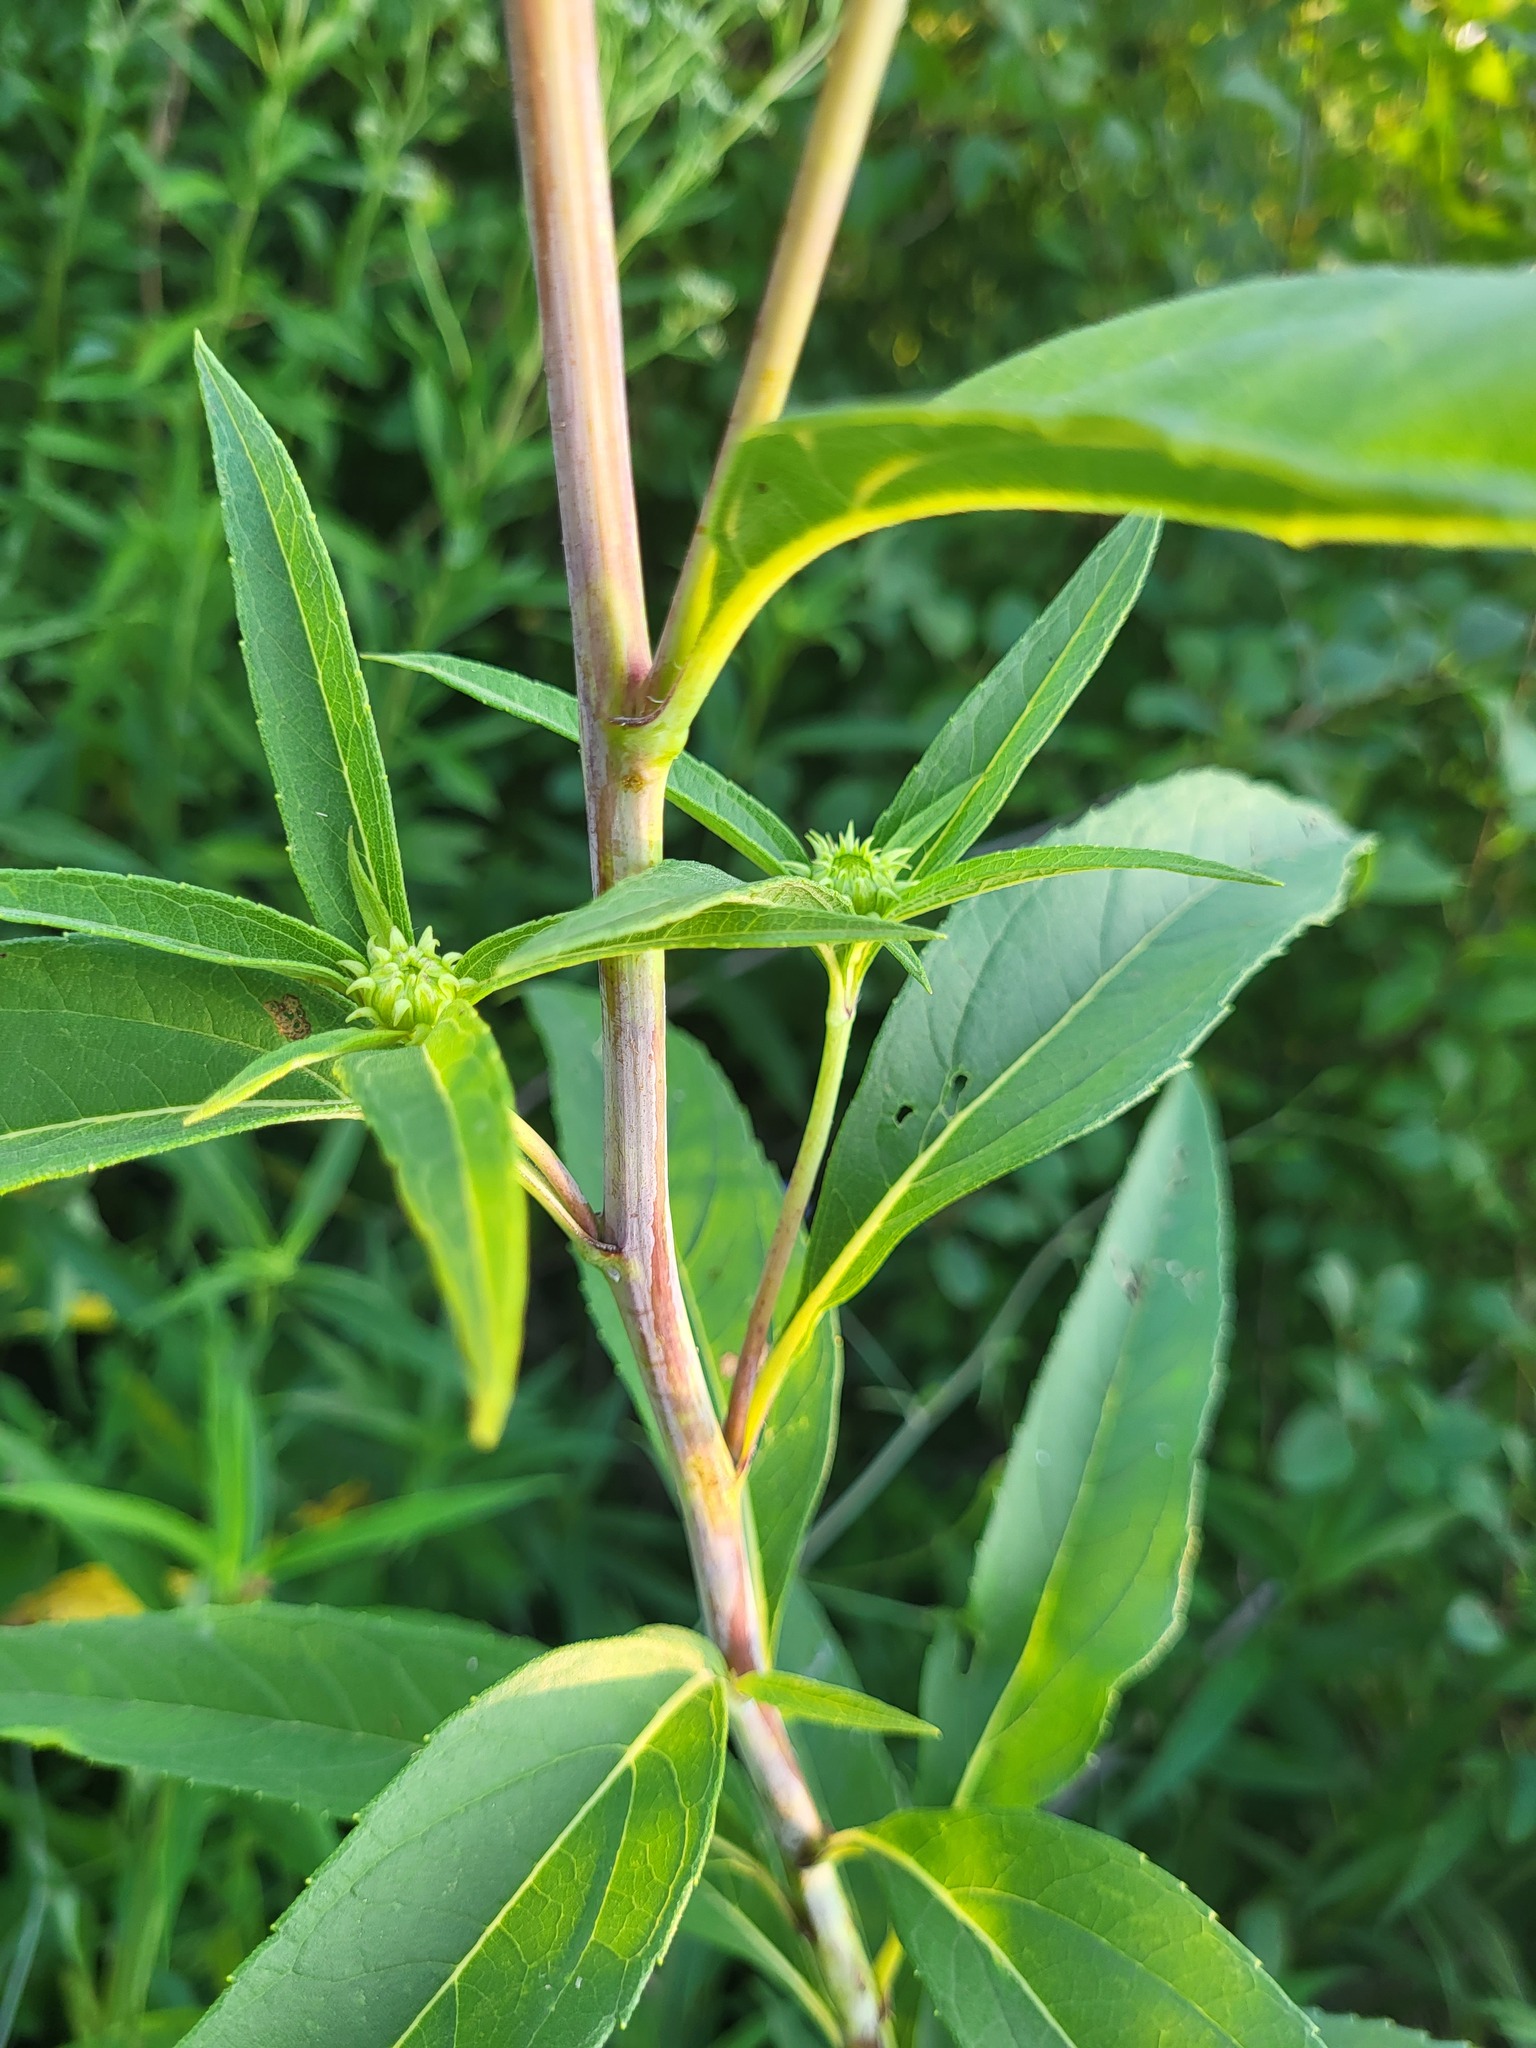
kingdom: Plantae
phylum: Tracheophyta
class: Magnoliopsida
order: Asterales
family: Asteraceae
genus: Helianthus
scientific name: Helianthus grosseserratus
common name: Sawtooth sunflower
